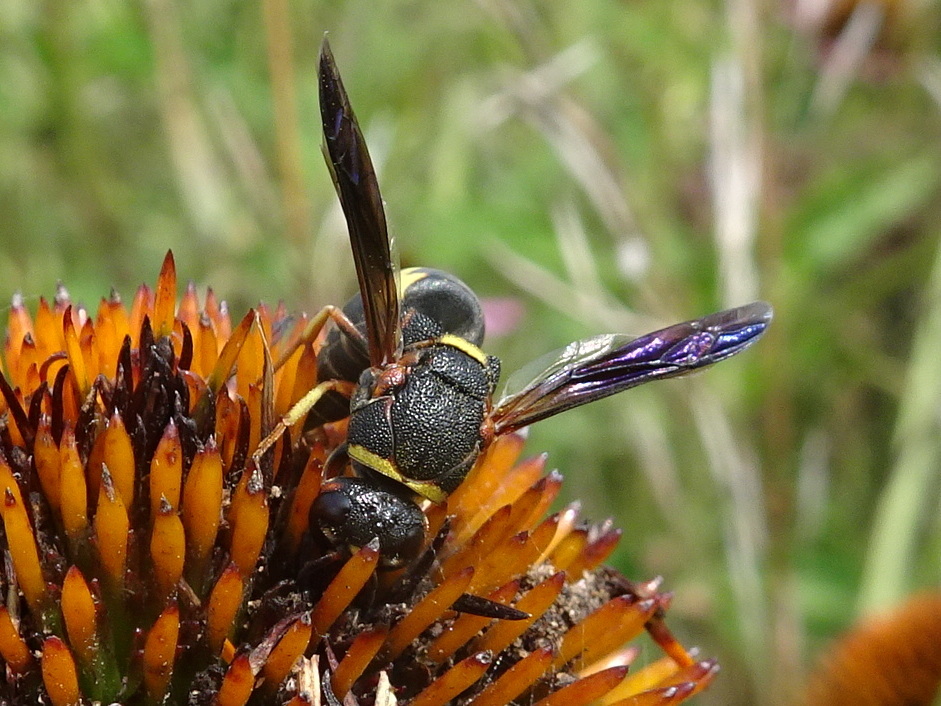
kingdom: Animalia
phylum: Arthropoda
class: Insecta
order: Hymenoptera
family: Eumenidae
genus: Euodynerus
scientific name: Euodynerus hidalgo
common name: Wasp
